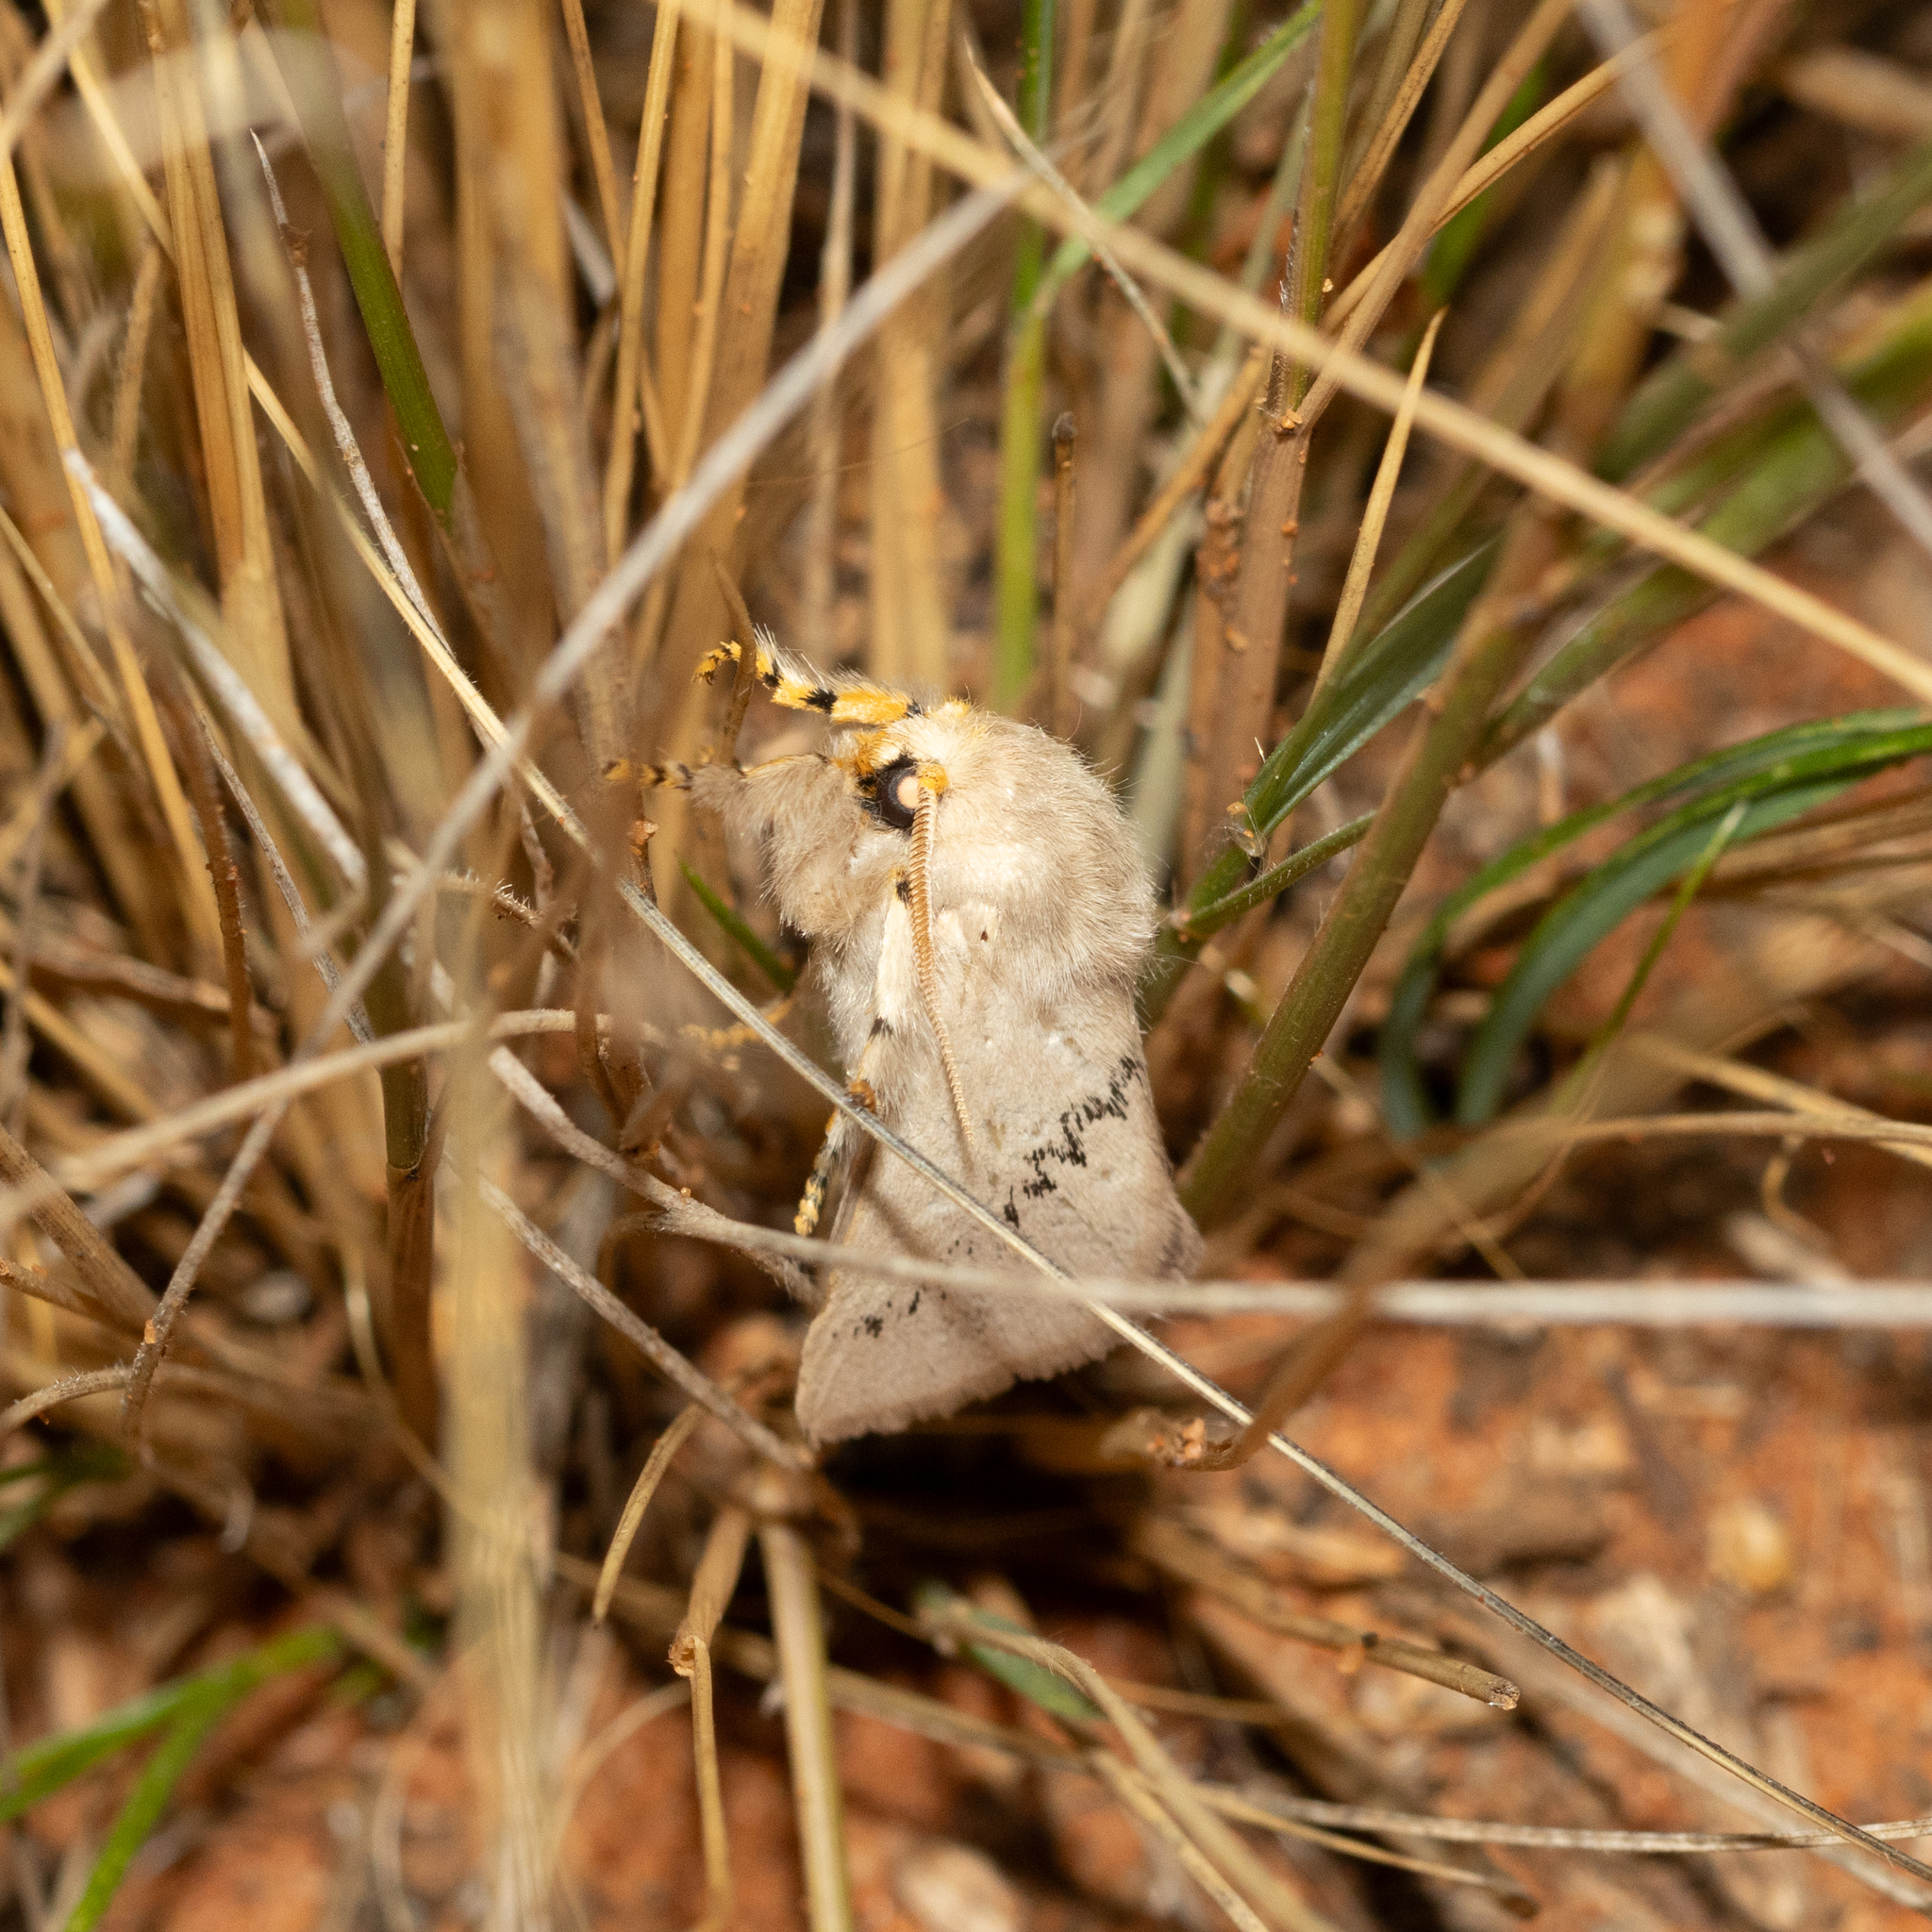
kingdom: Animalia
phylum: Arthropoda
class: Insecta
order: Lepidoptera
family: Limacodidae
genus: Anaxidia
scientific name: Anaxidia lactea
